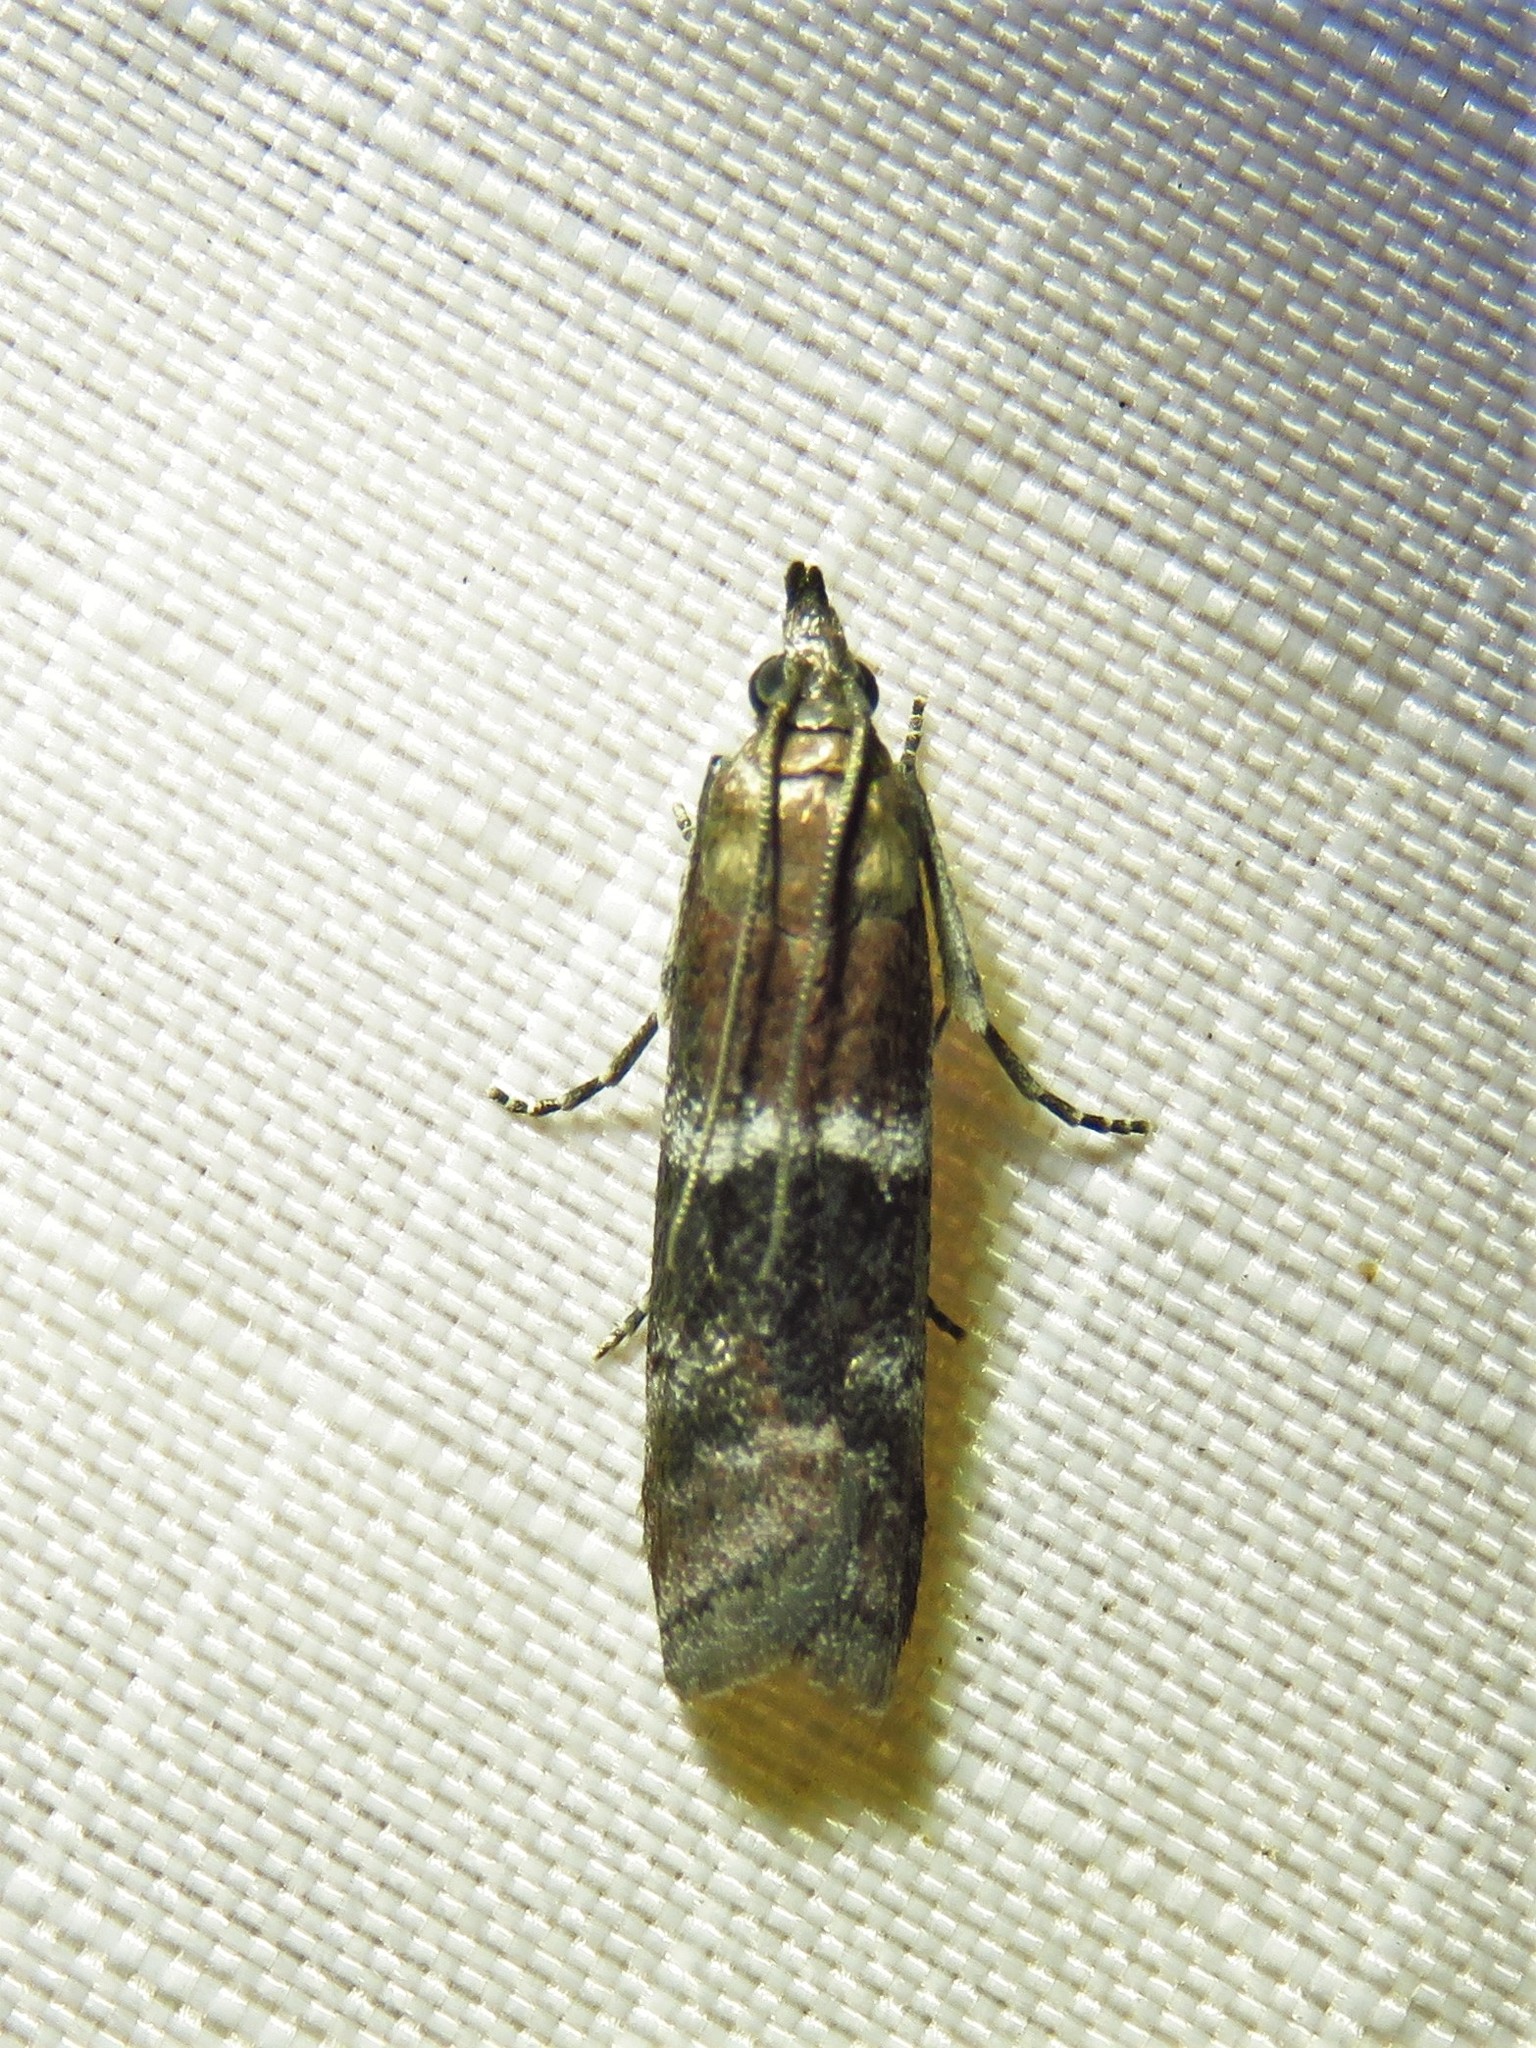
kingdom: Animalia
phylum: Arthropoda
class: Insecta
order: Lepidoptera
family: Pyralidae
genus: Moodna
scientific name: Moodna ostrinella
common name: Darker moodna moth
